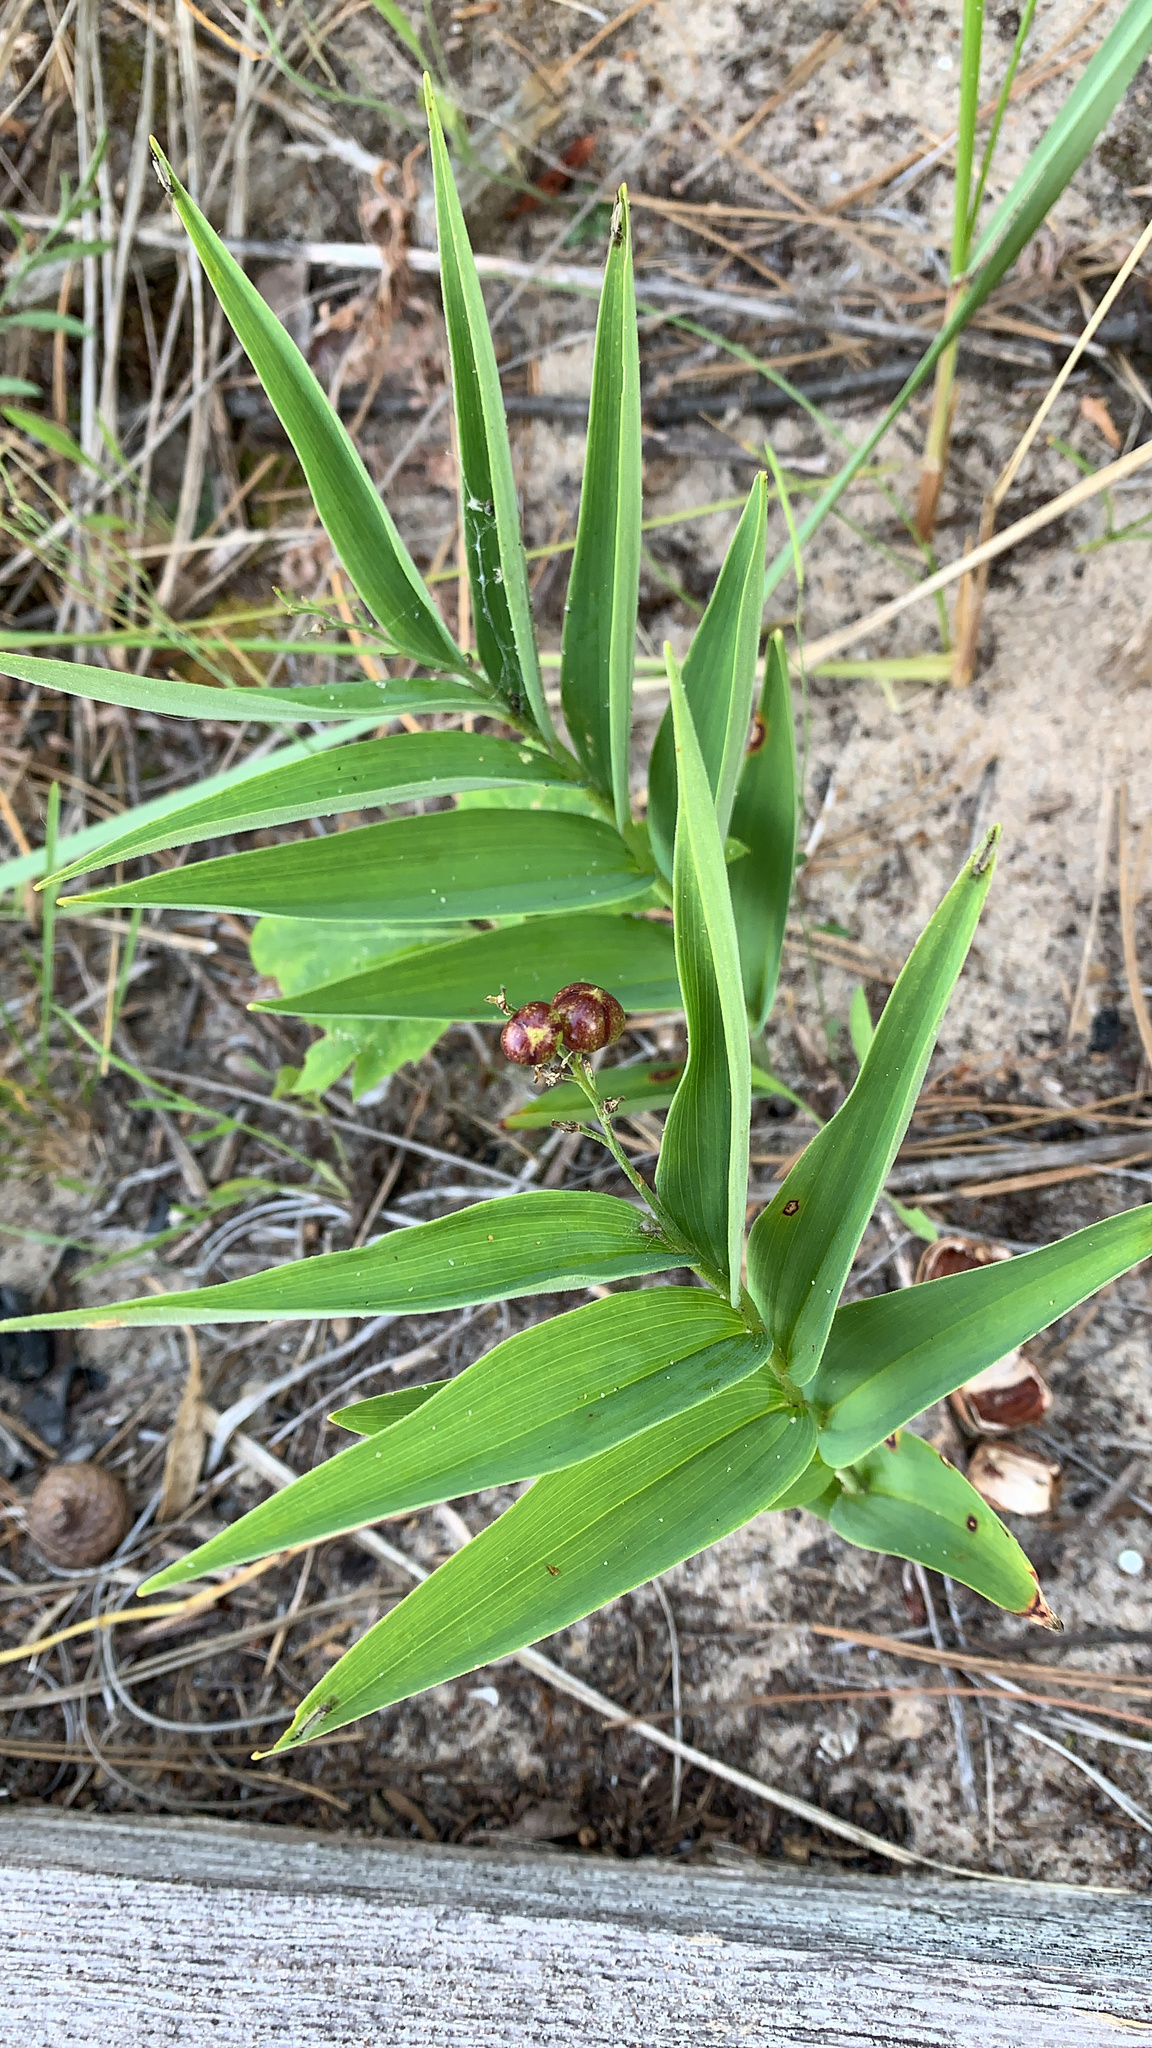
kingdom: Plantae
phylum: Tracheophyta
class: Liliopsida
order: Asparagales
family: Asparagaceae
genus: Maianthemum
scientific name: Maianthemum stellatum
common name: Little false solomon's seal
